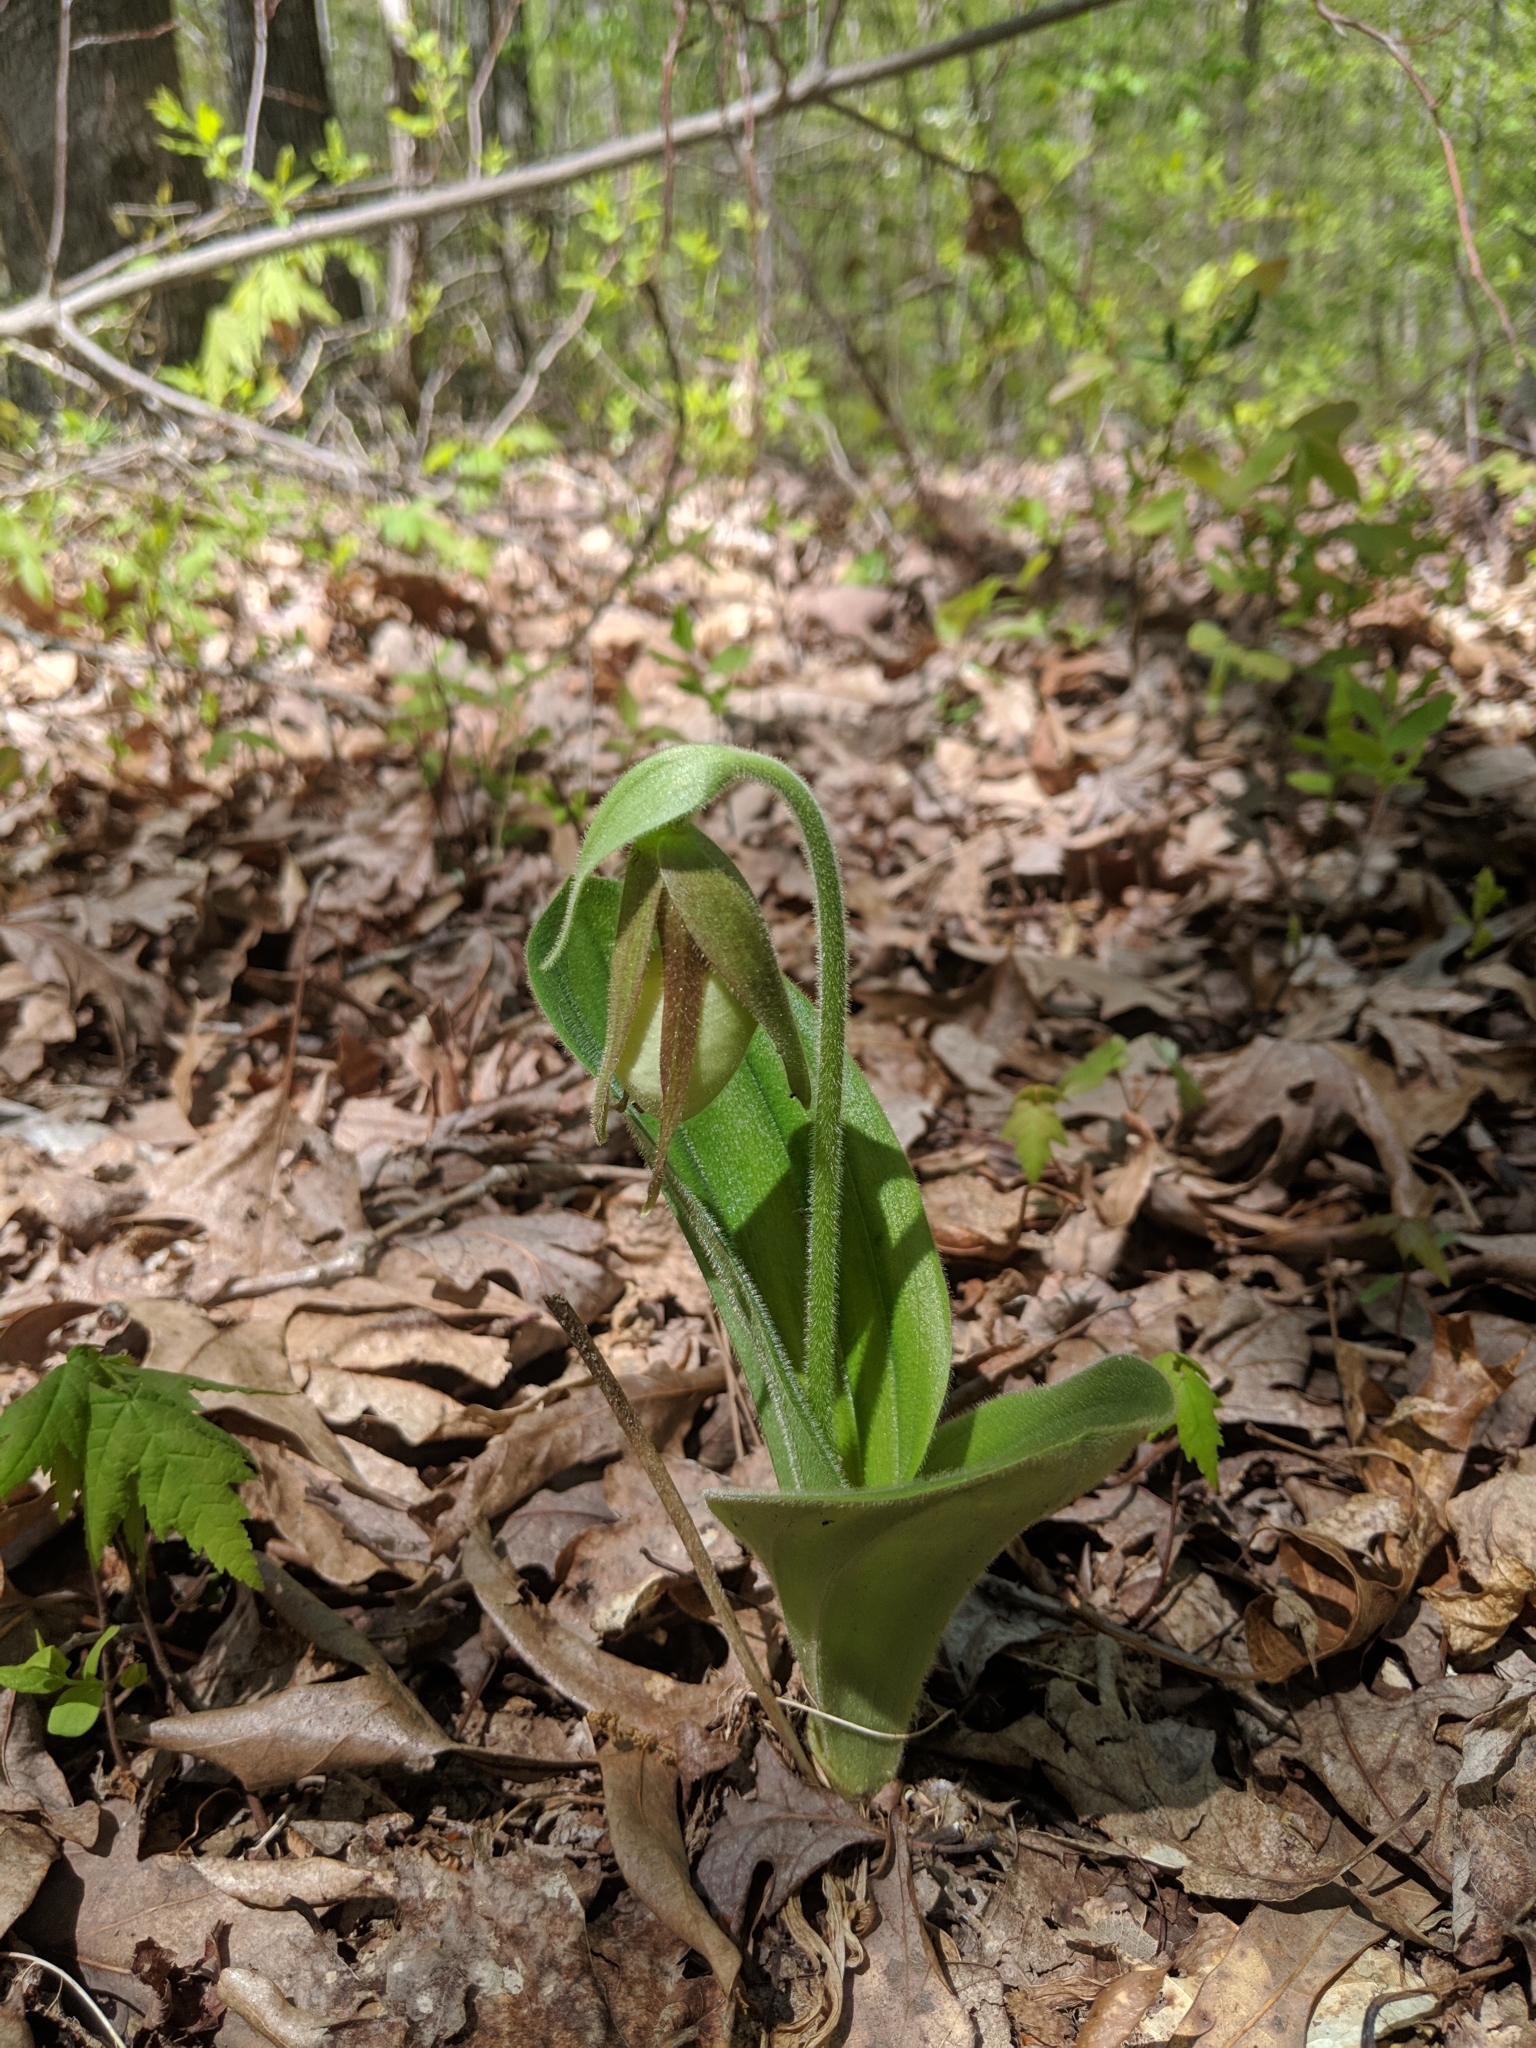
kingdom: Plantae
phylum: Tracheophyta
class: Liliopsida
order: Asparagales
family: Orchidaceae
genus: Cypripedium
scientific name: Cypripedium acaule
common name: Pink lady's-slipper
